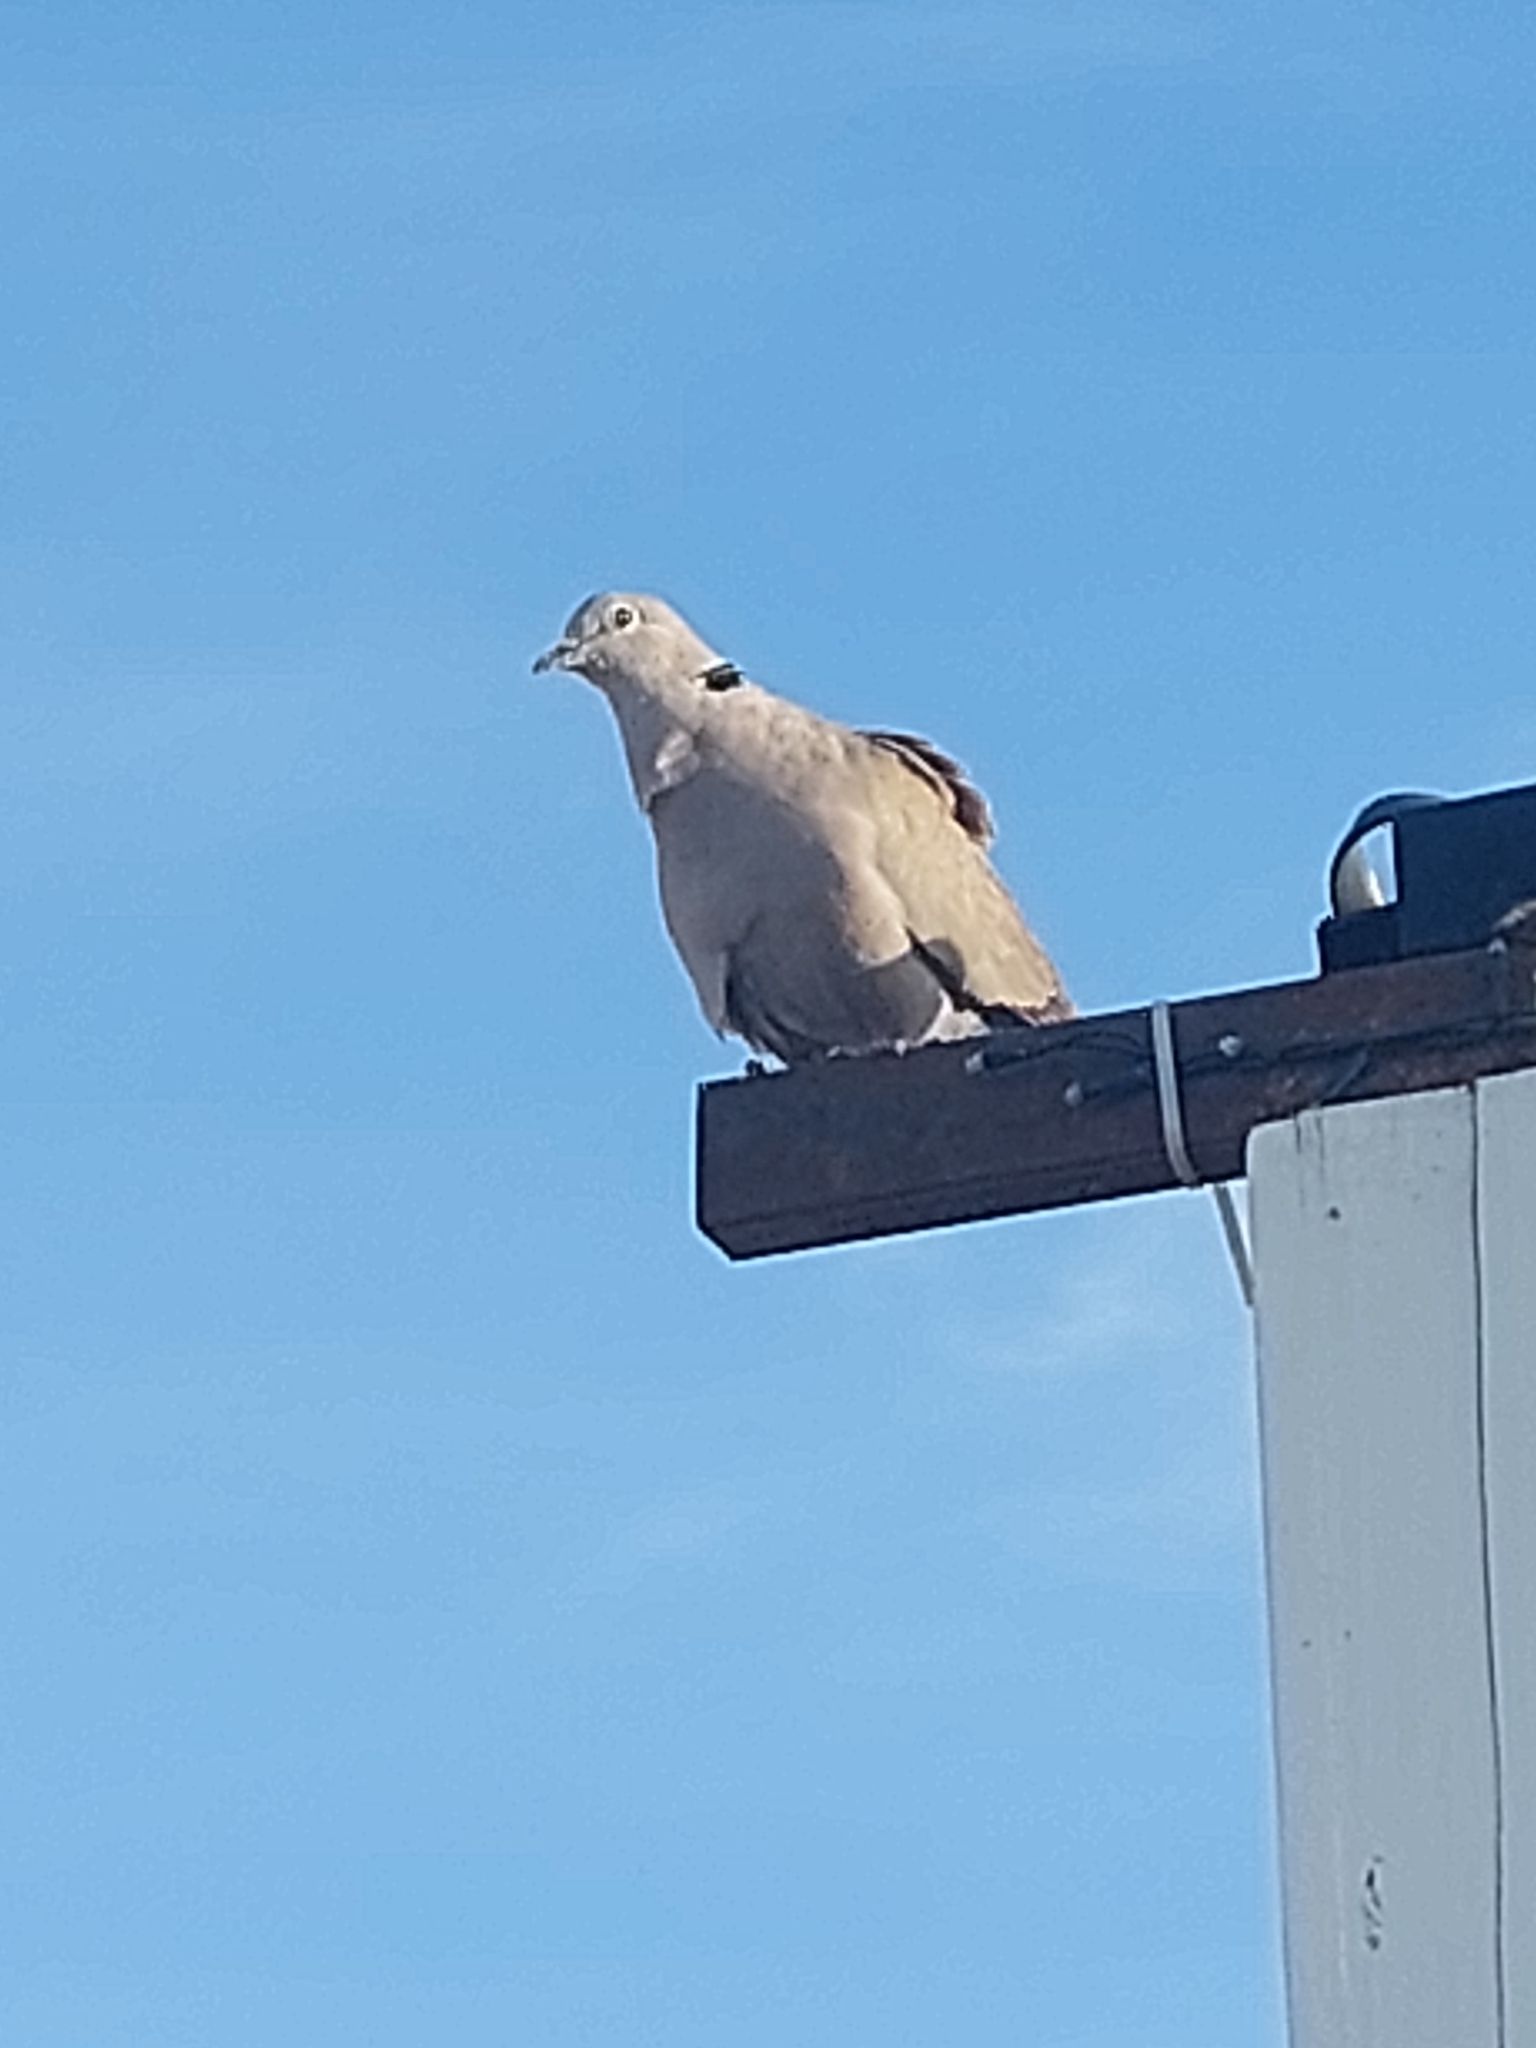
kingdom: Animalia
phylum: Chordata
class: Aves
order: Columbiformes
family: Columbidae
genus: Streptopelia
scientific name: Streptopelia decaocto
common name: Eurasian collared dove
